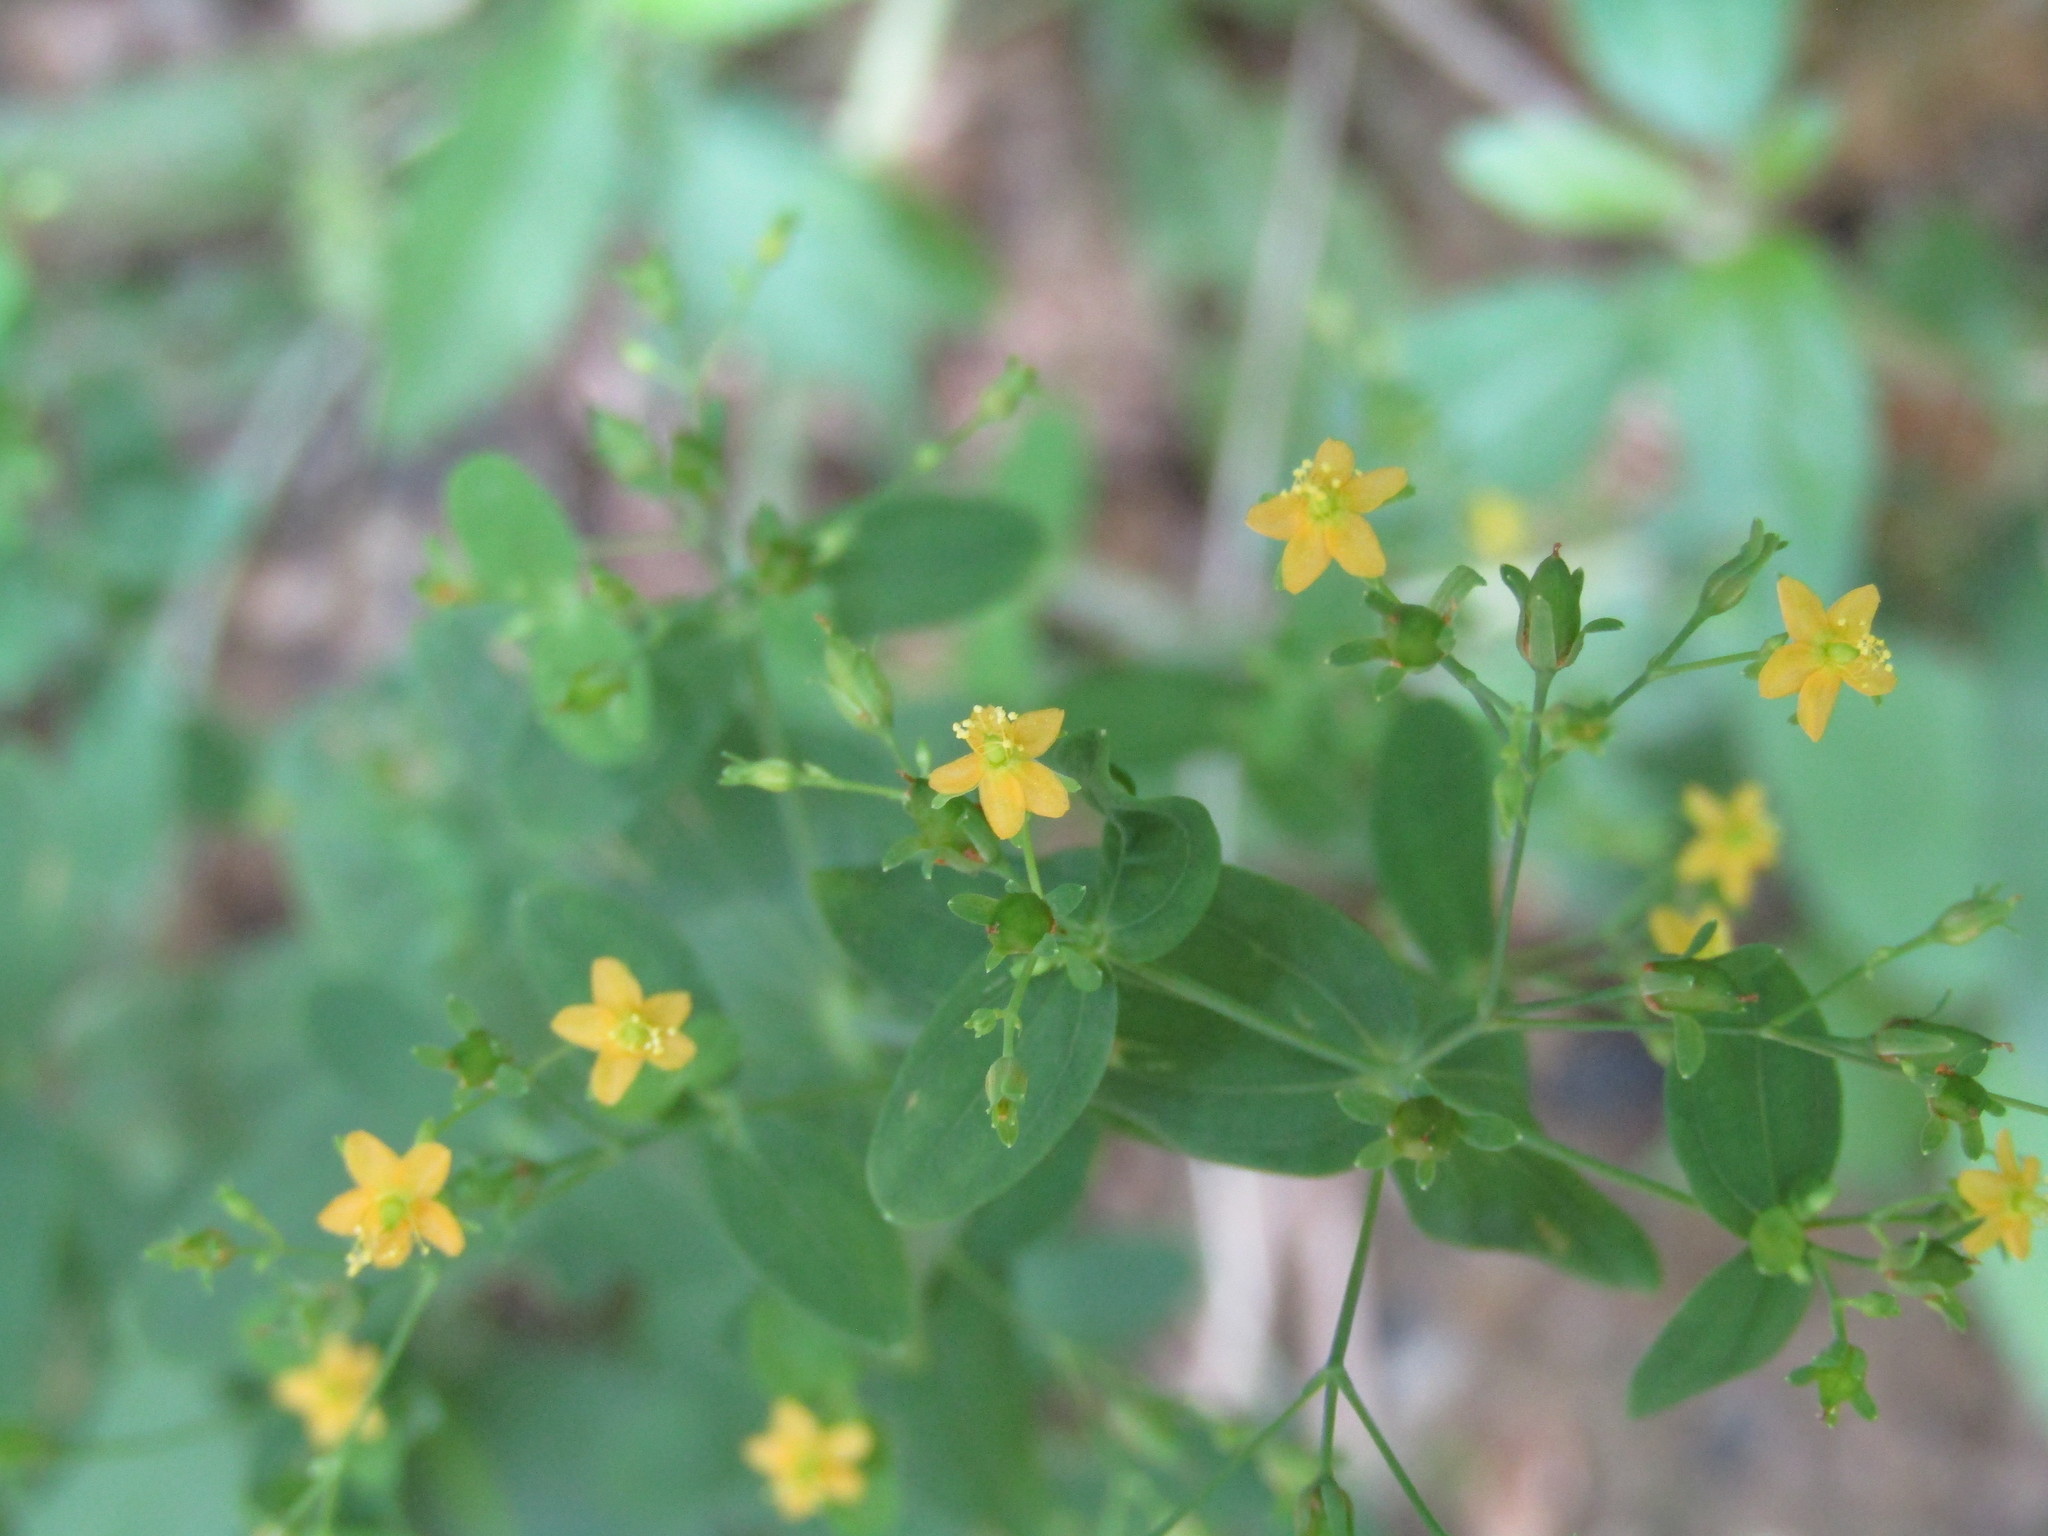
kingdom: Plantae
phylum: Tracheophyta
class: Magnoliopsida
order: Malpighiales
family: Hypericaceae
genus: Hypericum
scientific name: Hypericum mutilum
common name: Dwarf st. john's-wort
